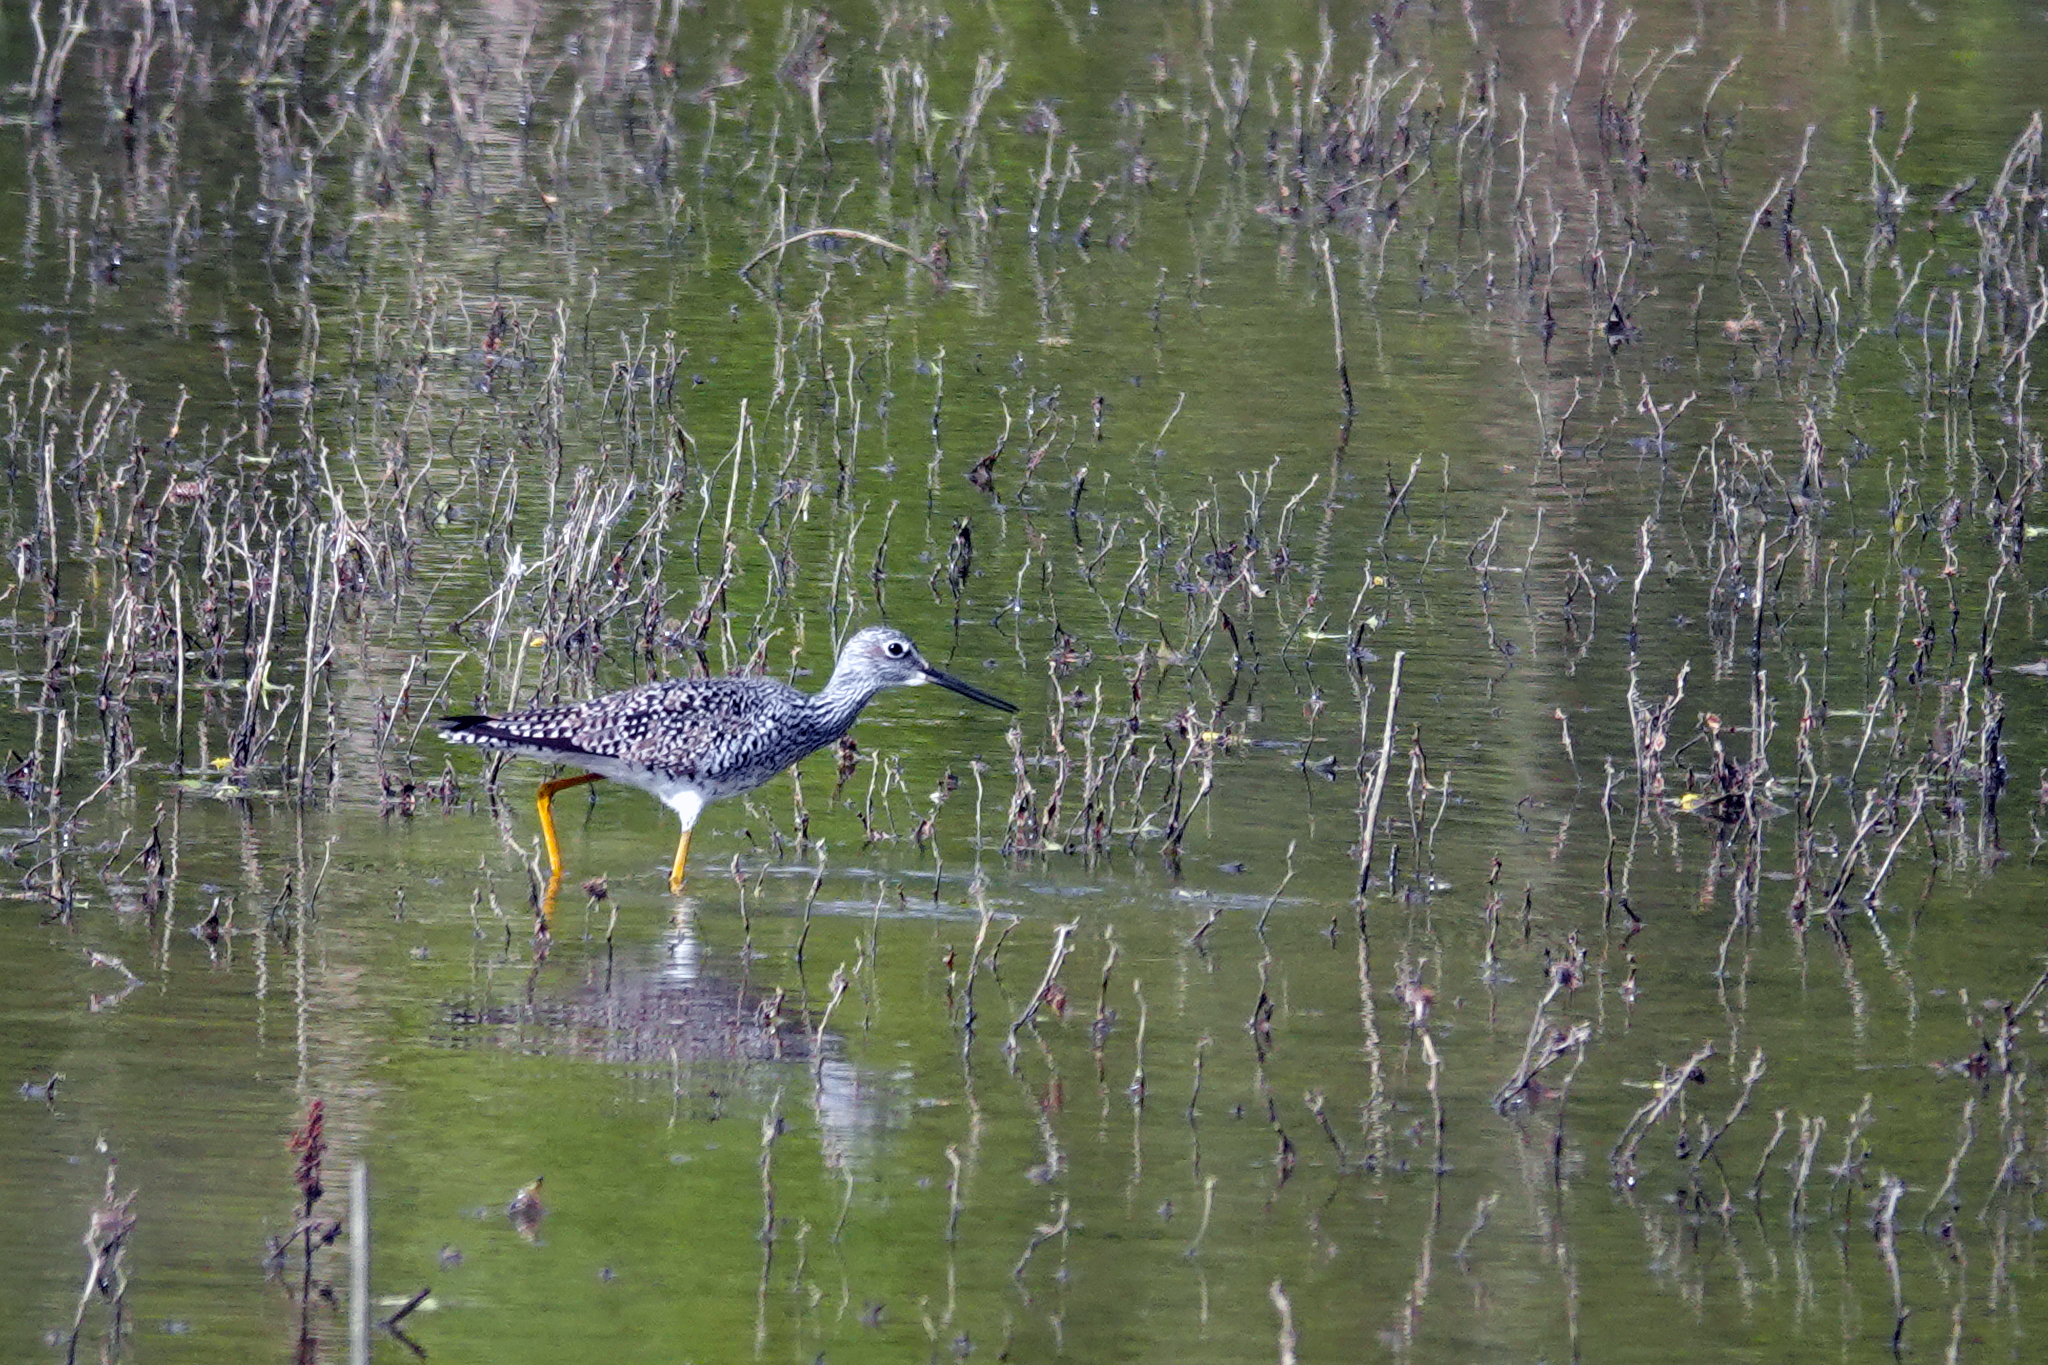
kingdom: Animalia
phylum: Chordata
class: Aves
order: Charadriiformes
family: Scolopacidae
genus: Tringa
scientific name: Tringa melanoleuca
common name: Greater yellowlegs
